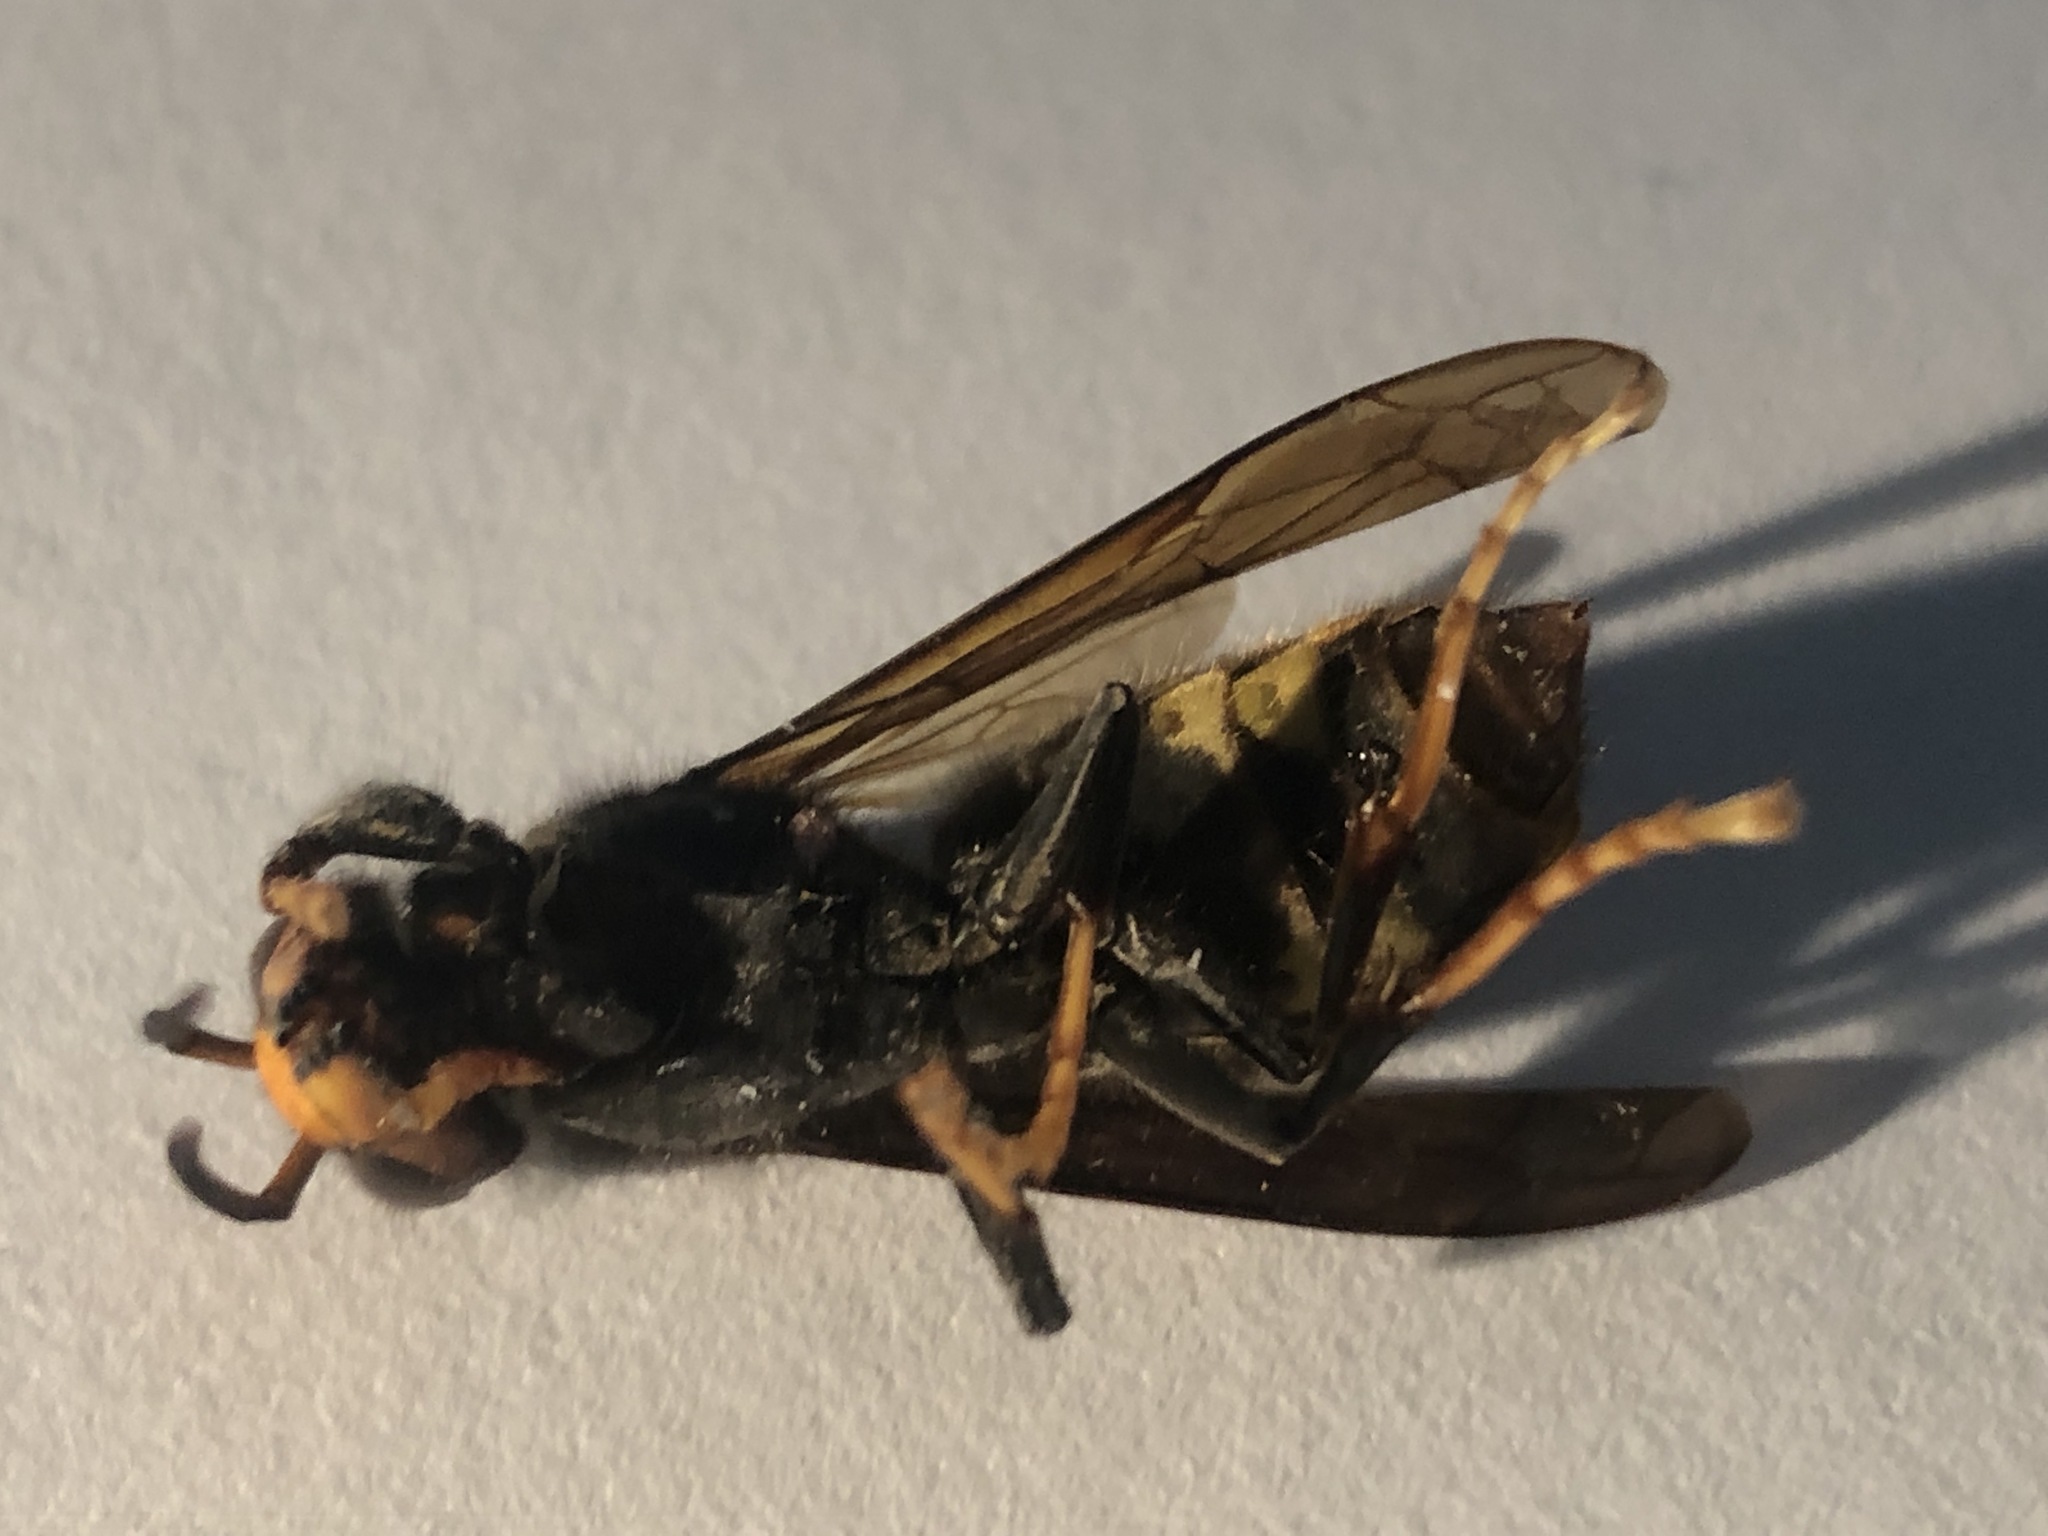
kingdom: Animalia
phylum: Arthropoda
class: Insecta
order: Hymenoptera
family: Vespidae
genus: Vespa
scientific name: Vespa velutina
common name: Asian hornet
